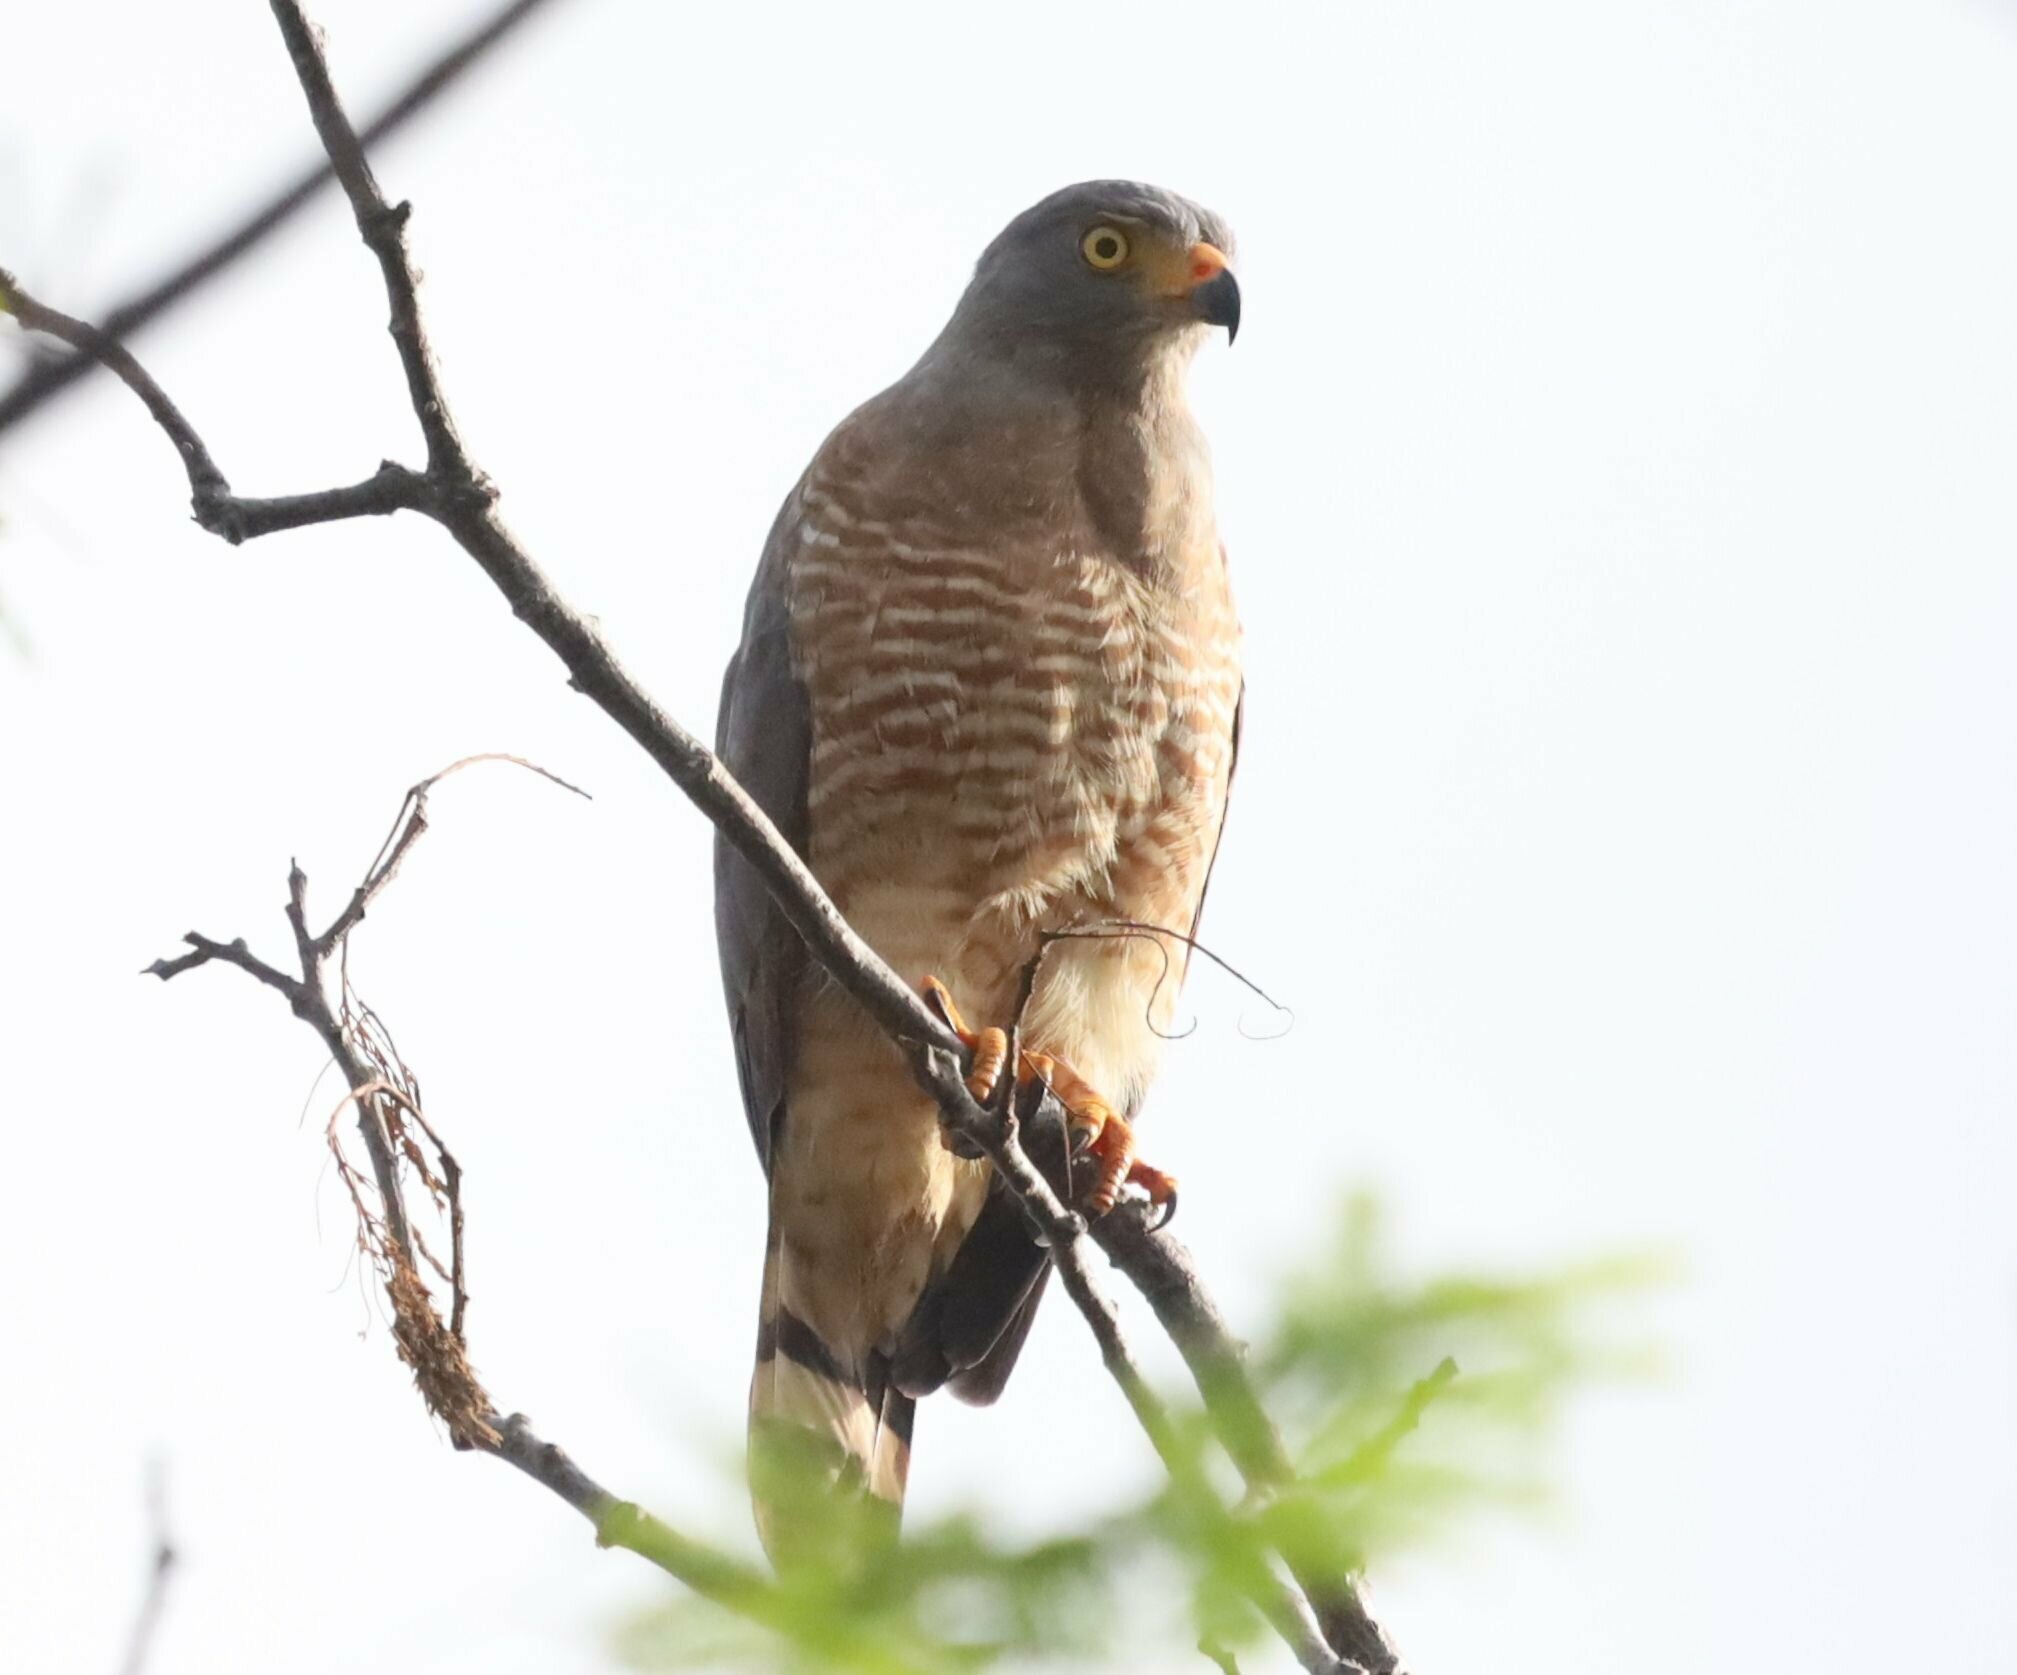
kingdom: Animalia
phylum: Chordata
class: Aves
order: Accipitriformes
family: Accipitridae
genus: Rupornis
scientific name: Rupornis magnirostris
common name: Roadside hawk
